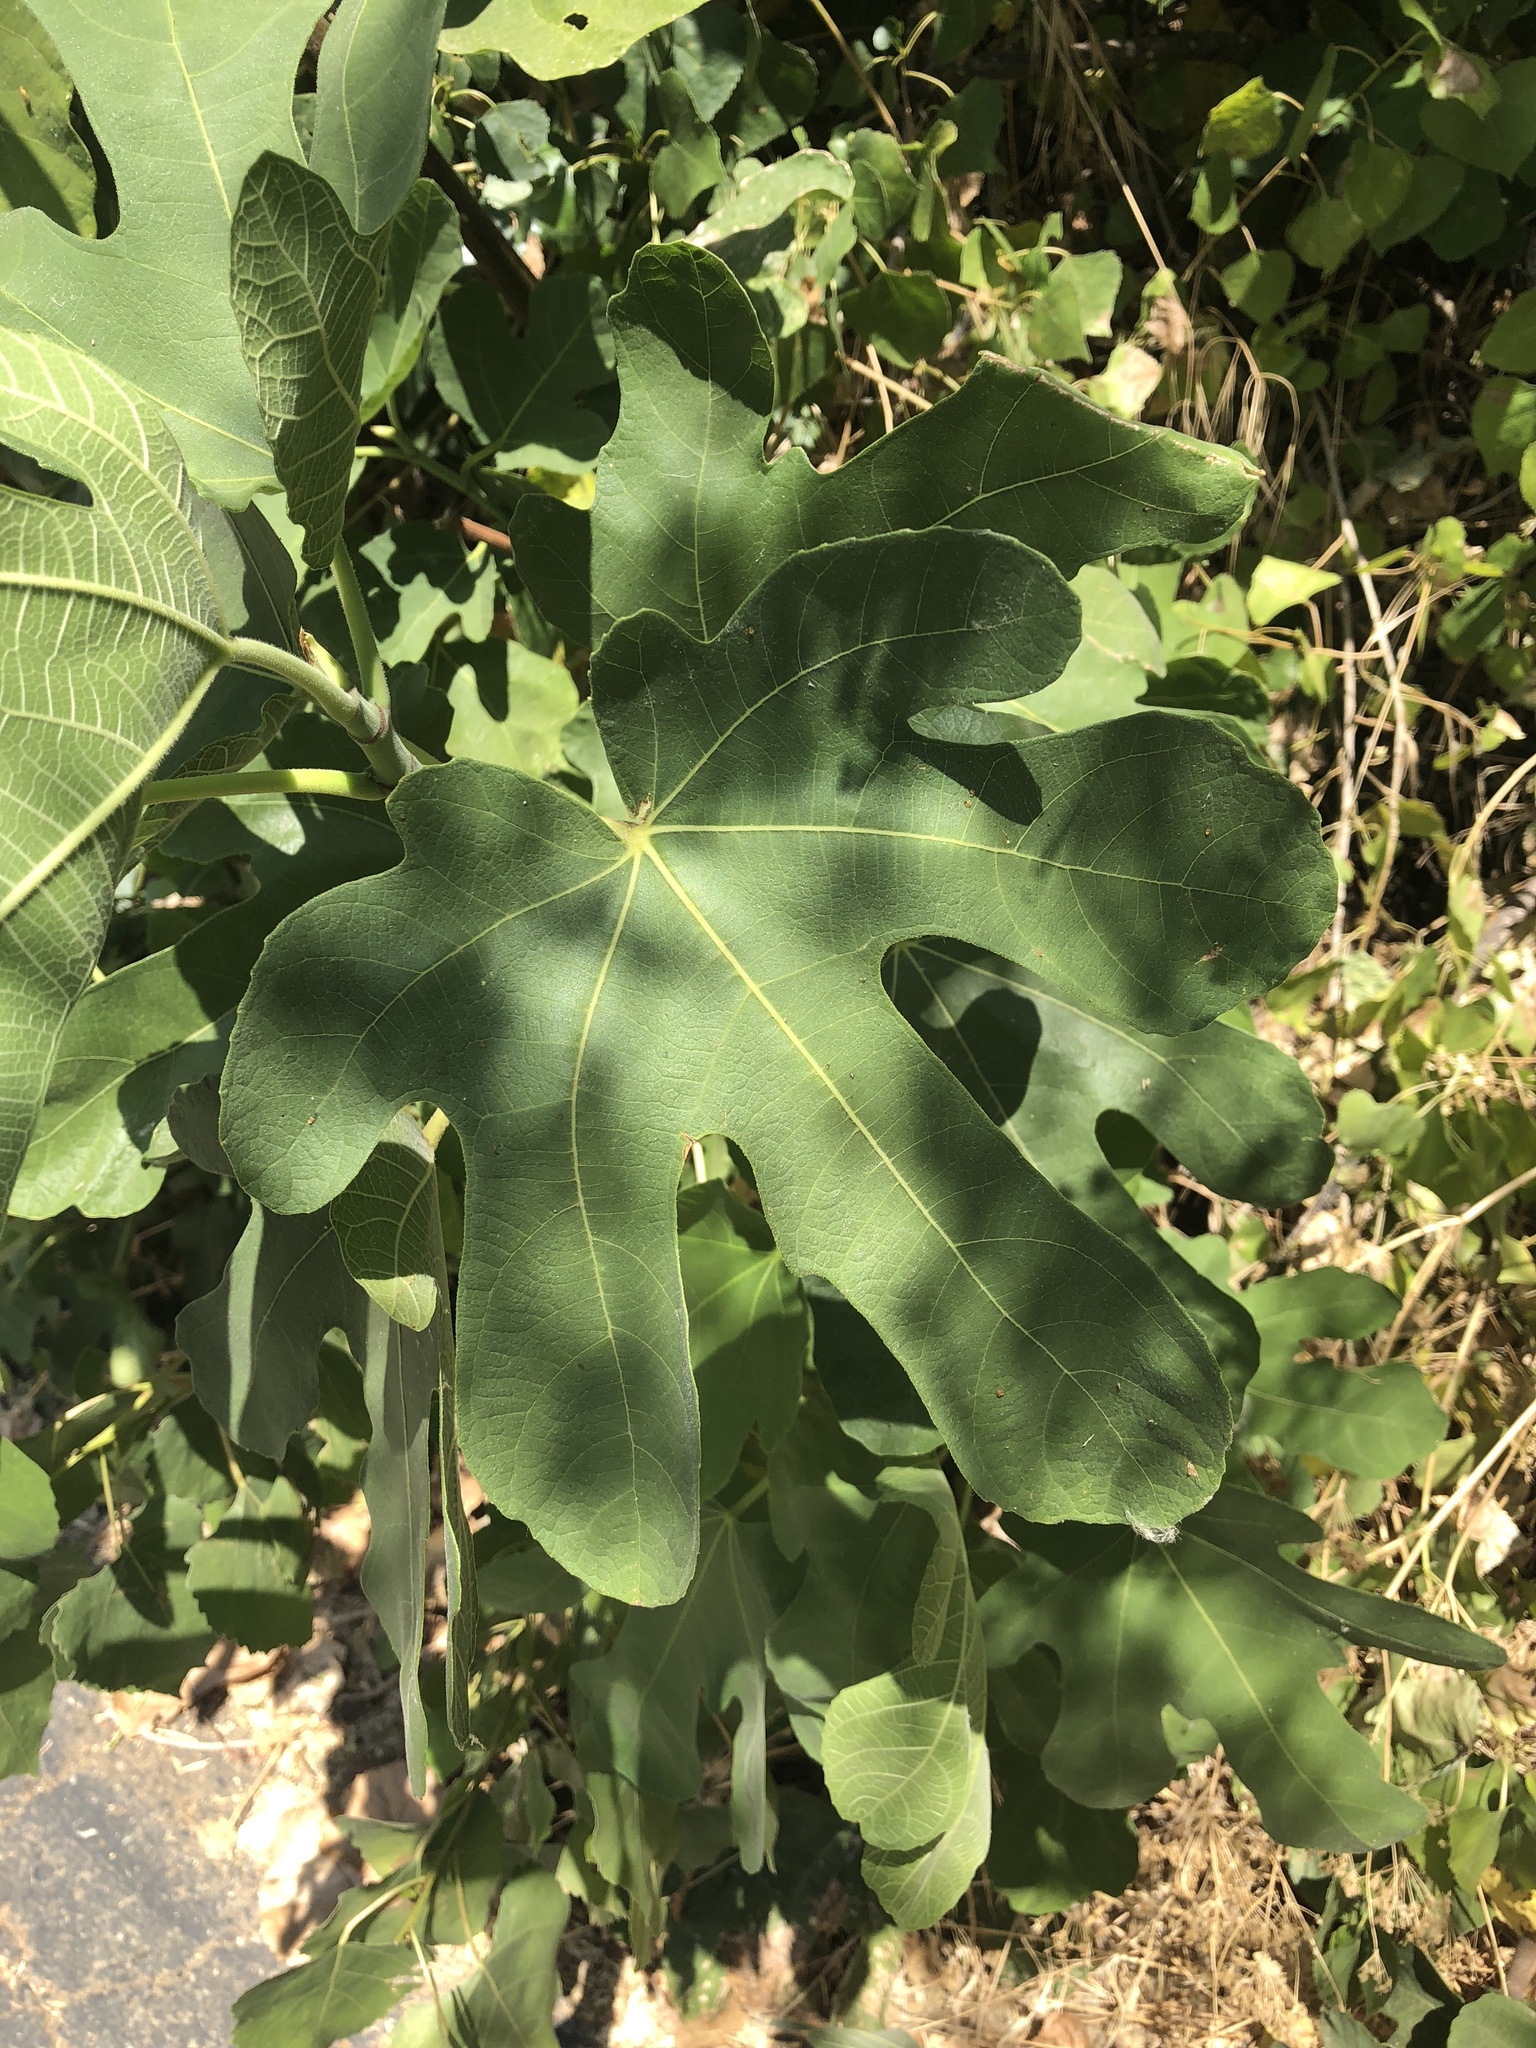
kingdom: Plantae
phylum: Tracheophyta
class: Magnoliopsida
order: Rosales
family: Moraceae
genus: Ficus
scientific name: Ficus carica
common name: Fig
